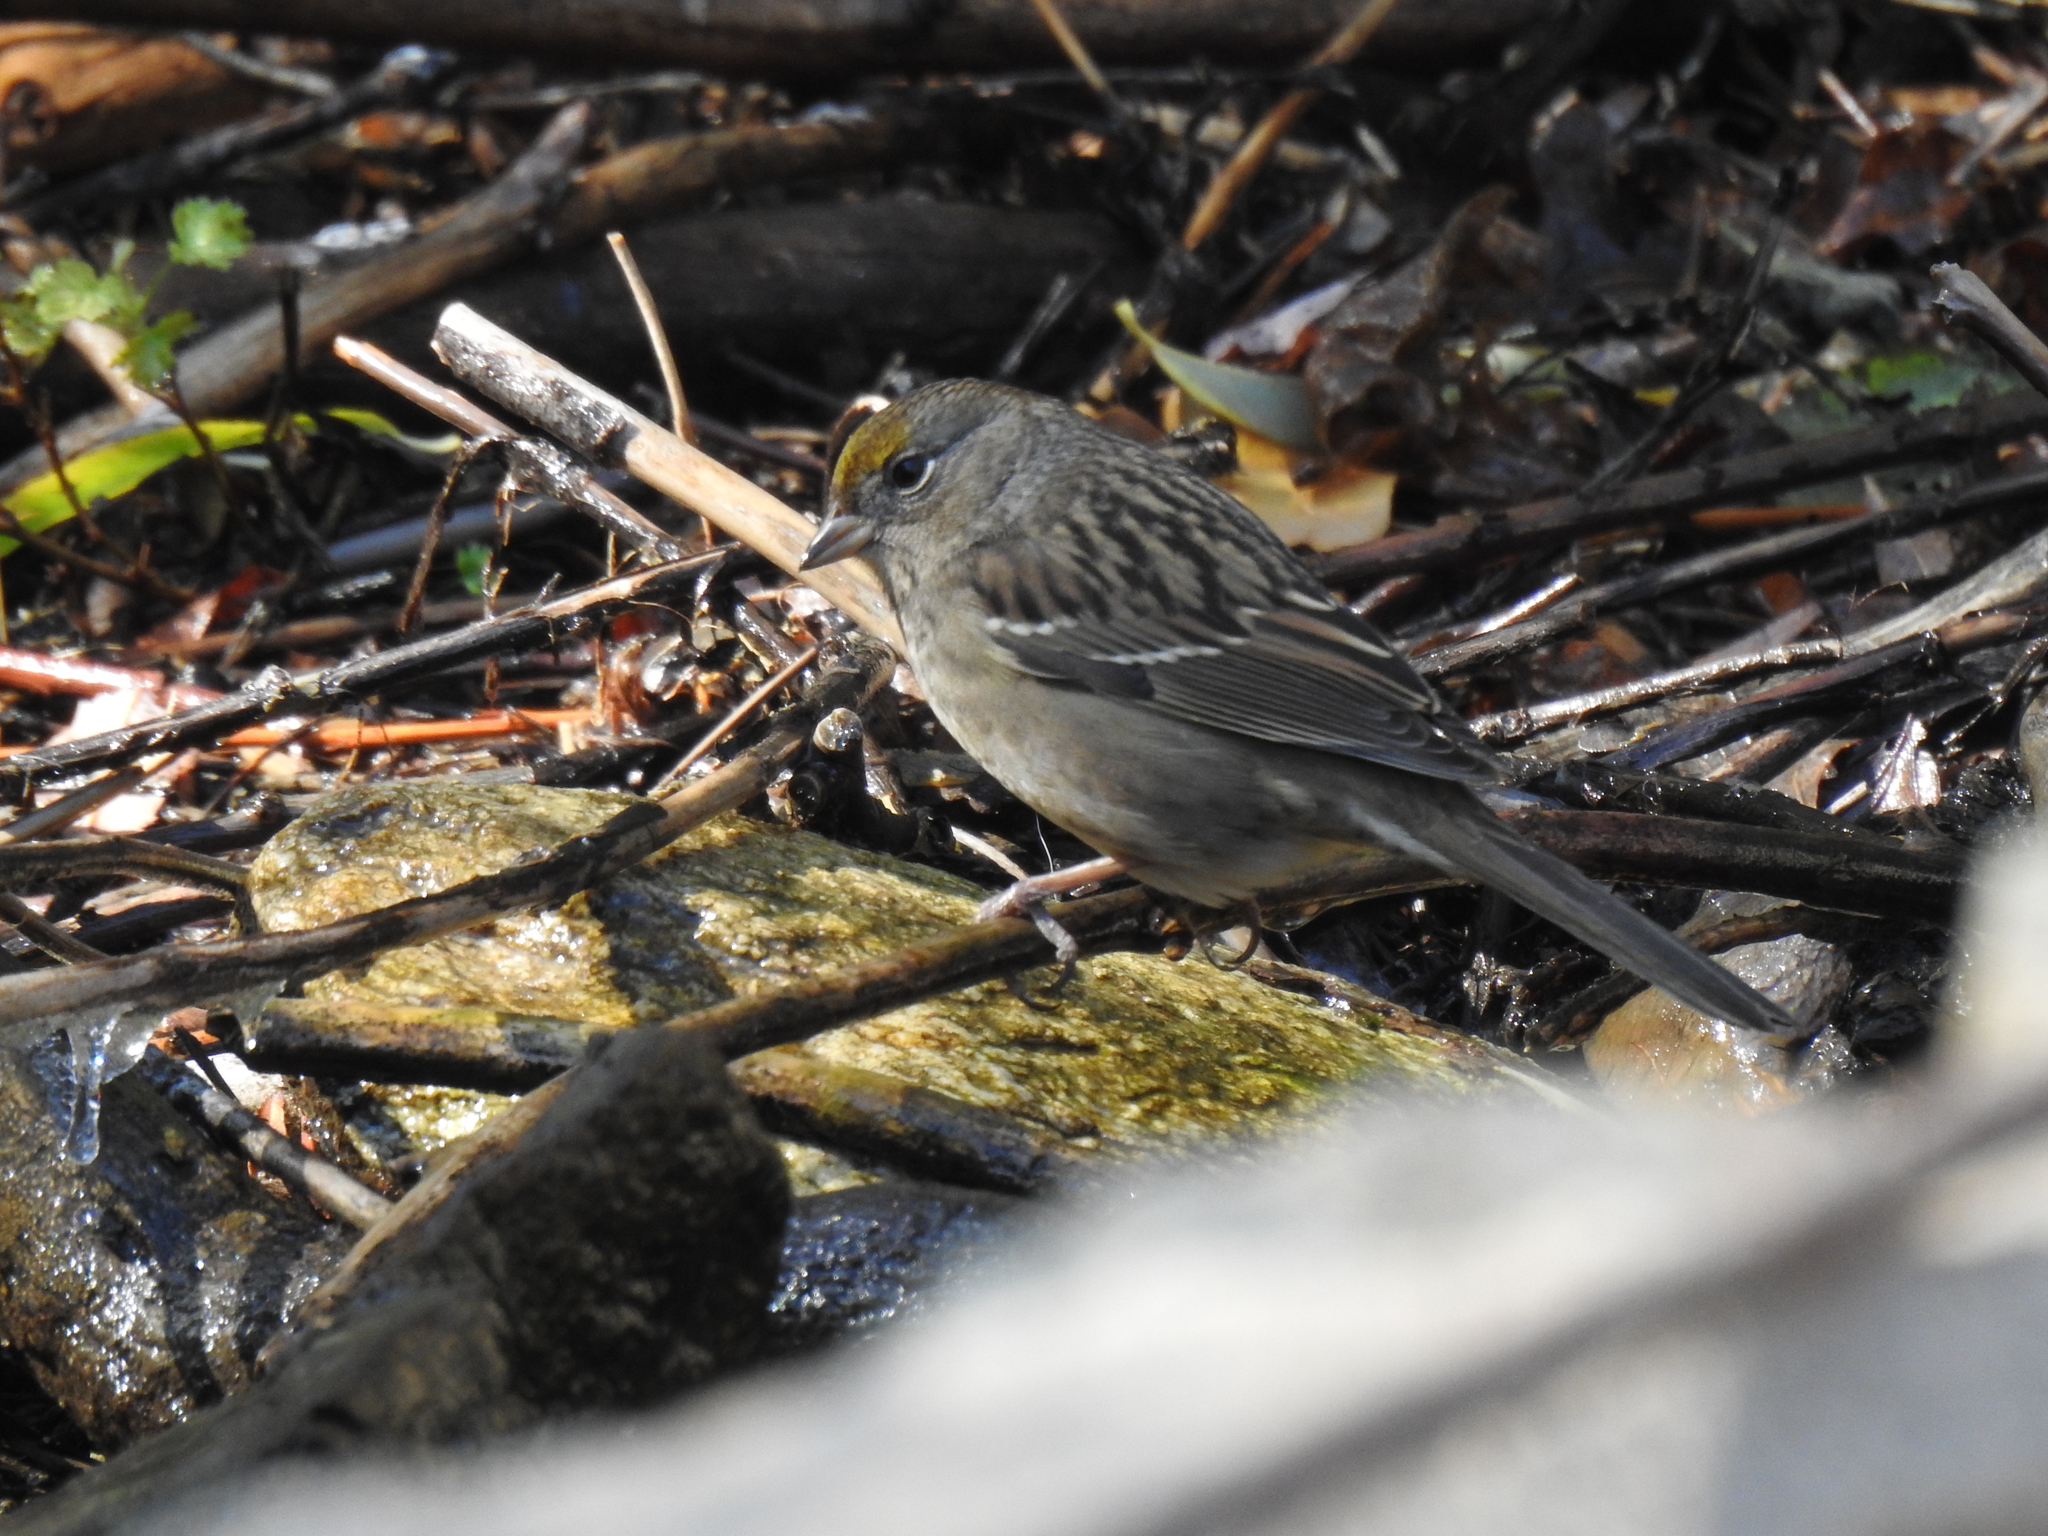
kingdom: Animalia
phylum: Chordata
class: Aves
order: Passeriformes
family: Passerellidae
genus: Zonotrichia
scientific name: Zonotrichia atricapilla
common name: Golden-crowned sparrow
